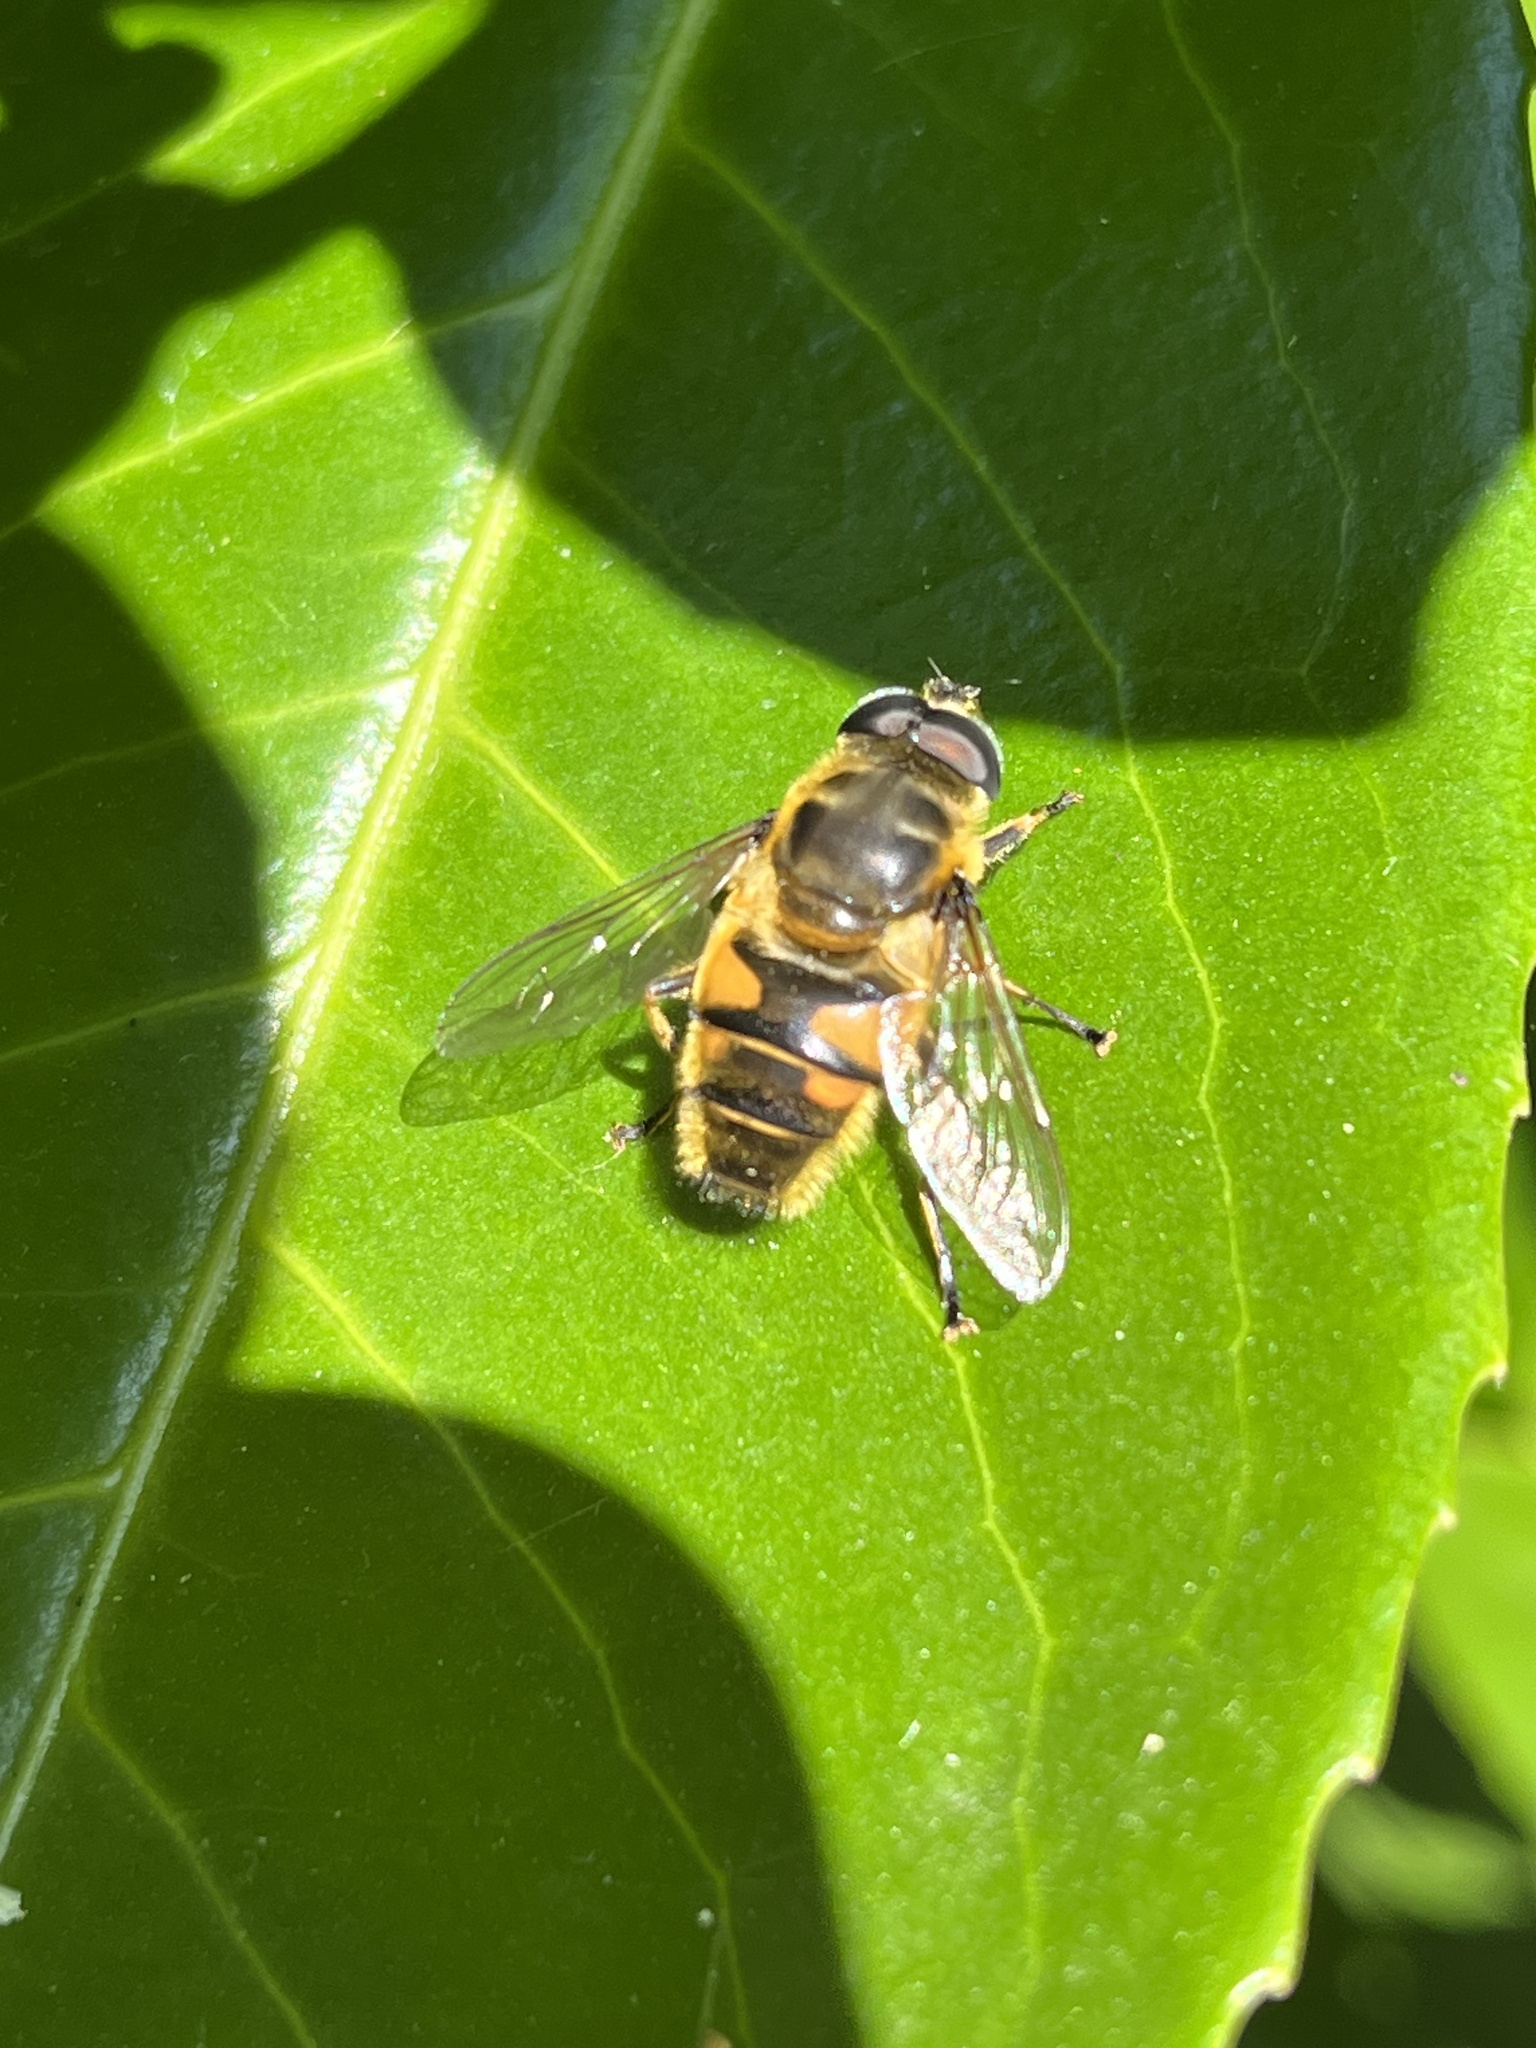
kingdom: Animalia
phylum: Arthropoda
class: Insecta
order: Diptera
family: Syrphidae
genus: Myathropa
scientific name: Myathropa florea
